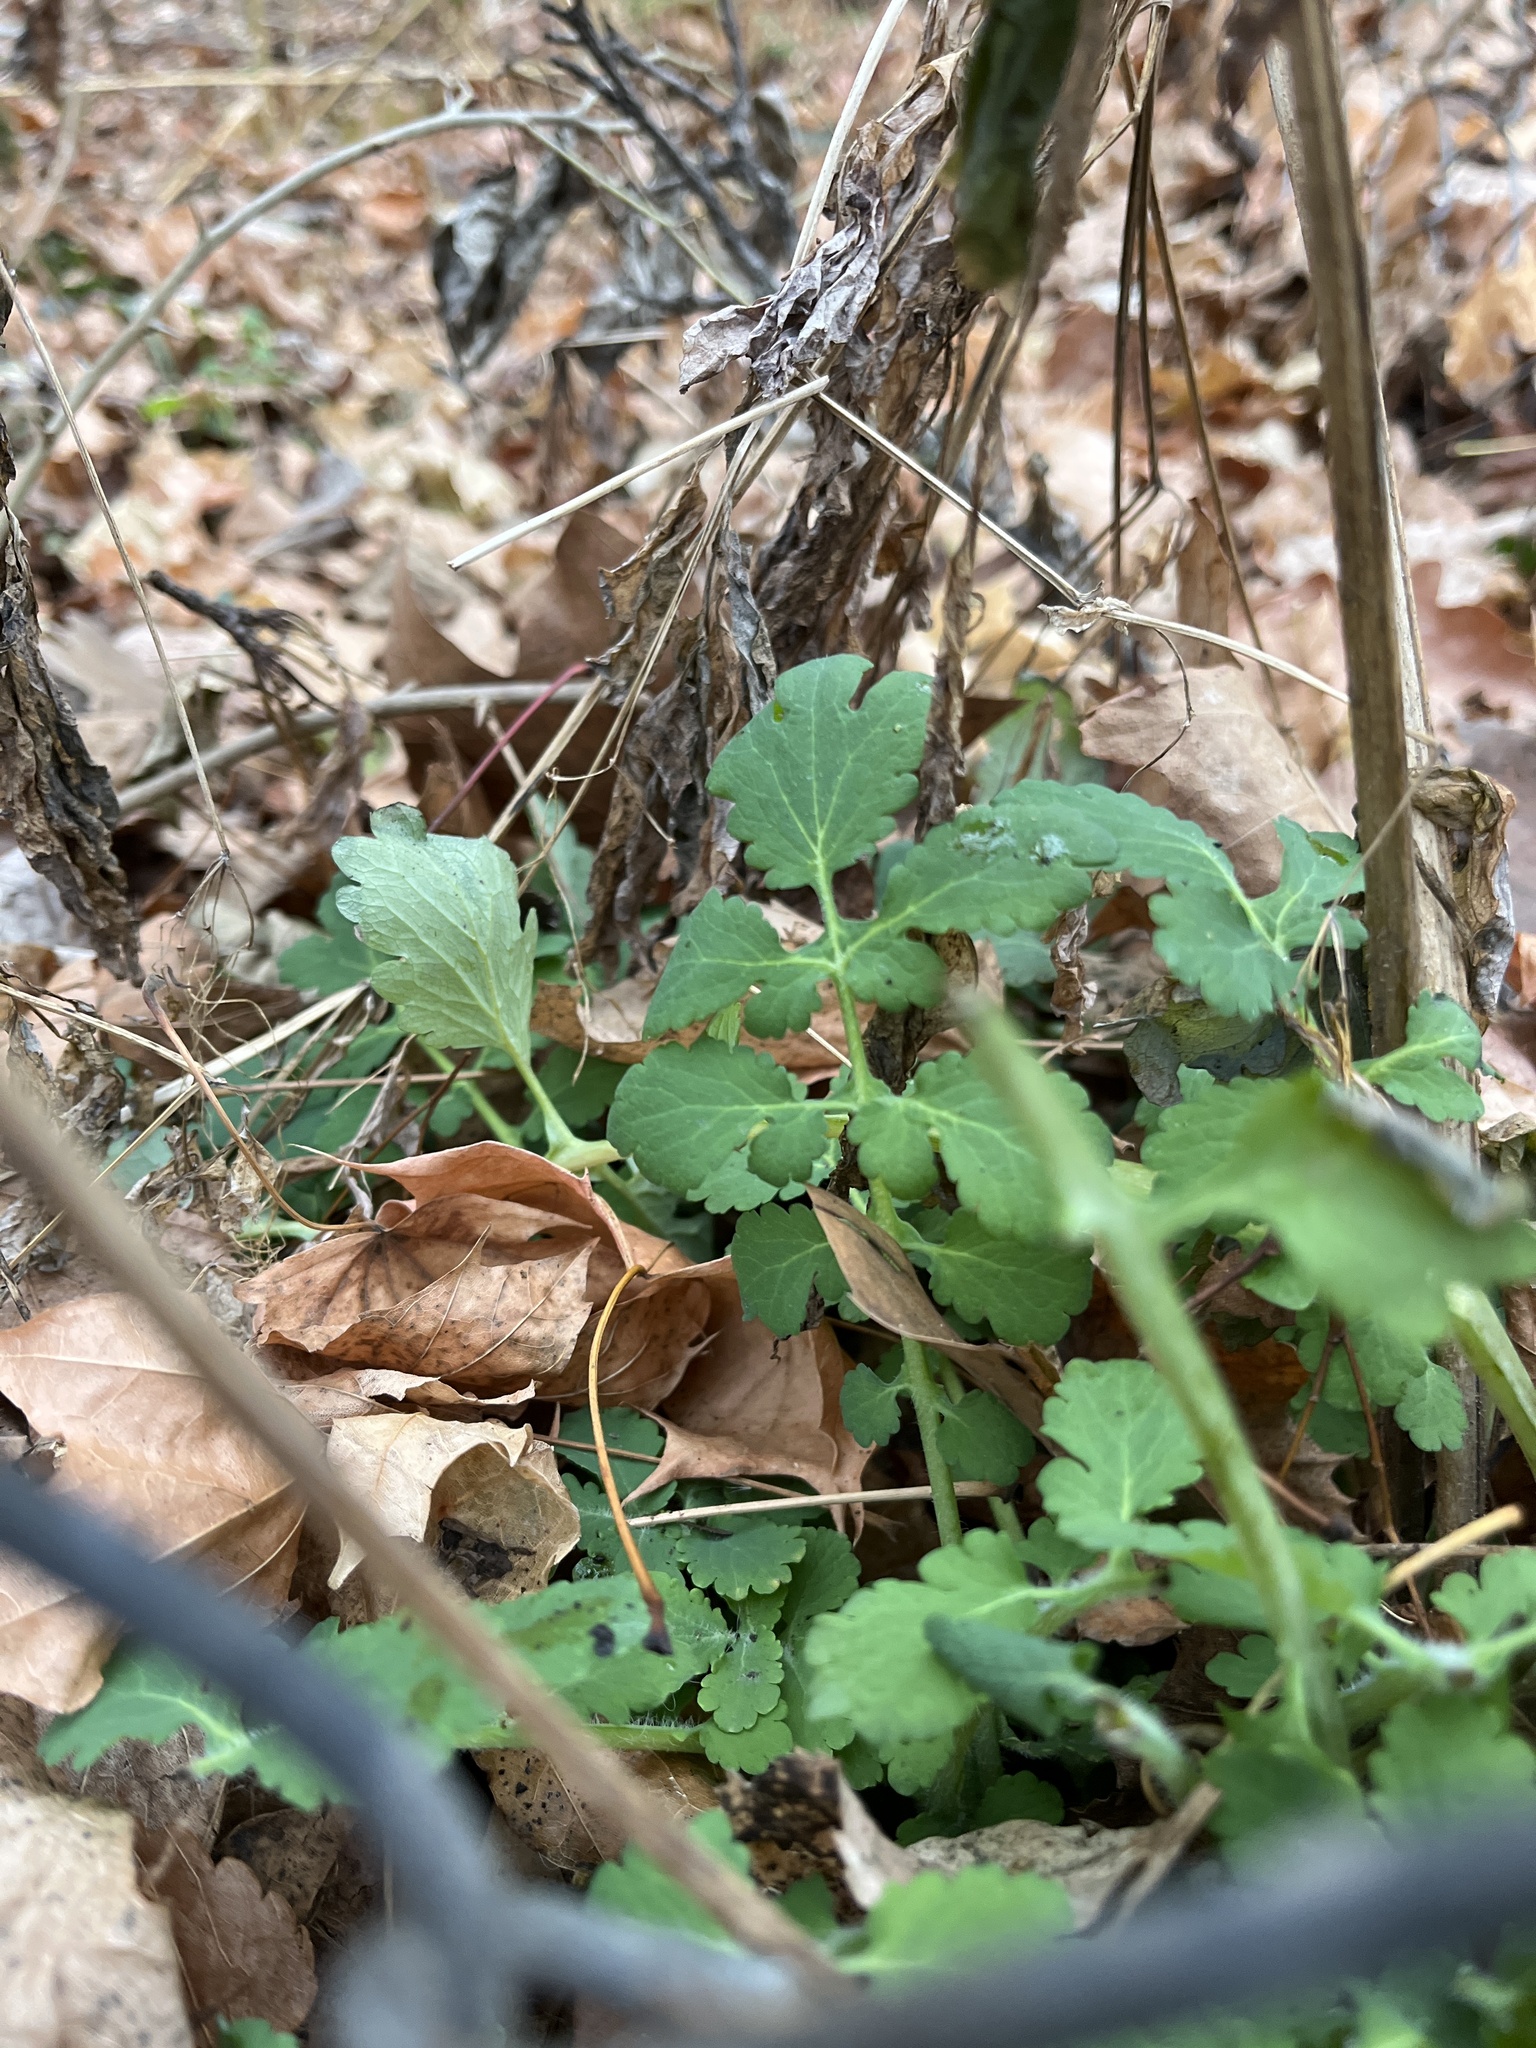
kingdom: Plantae
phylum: Tracheophyta
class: Magnoliopsida
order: Ranunculales
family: Papaveraceae
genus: Chelidonium
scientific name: Chelidonium majus
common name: Greater celandine
